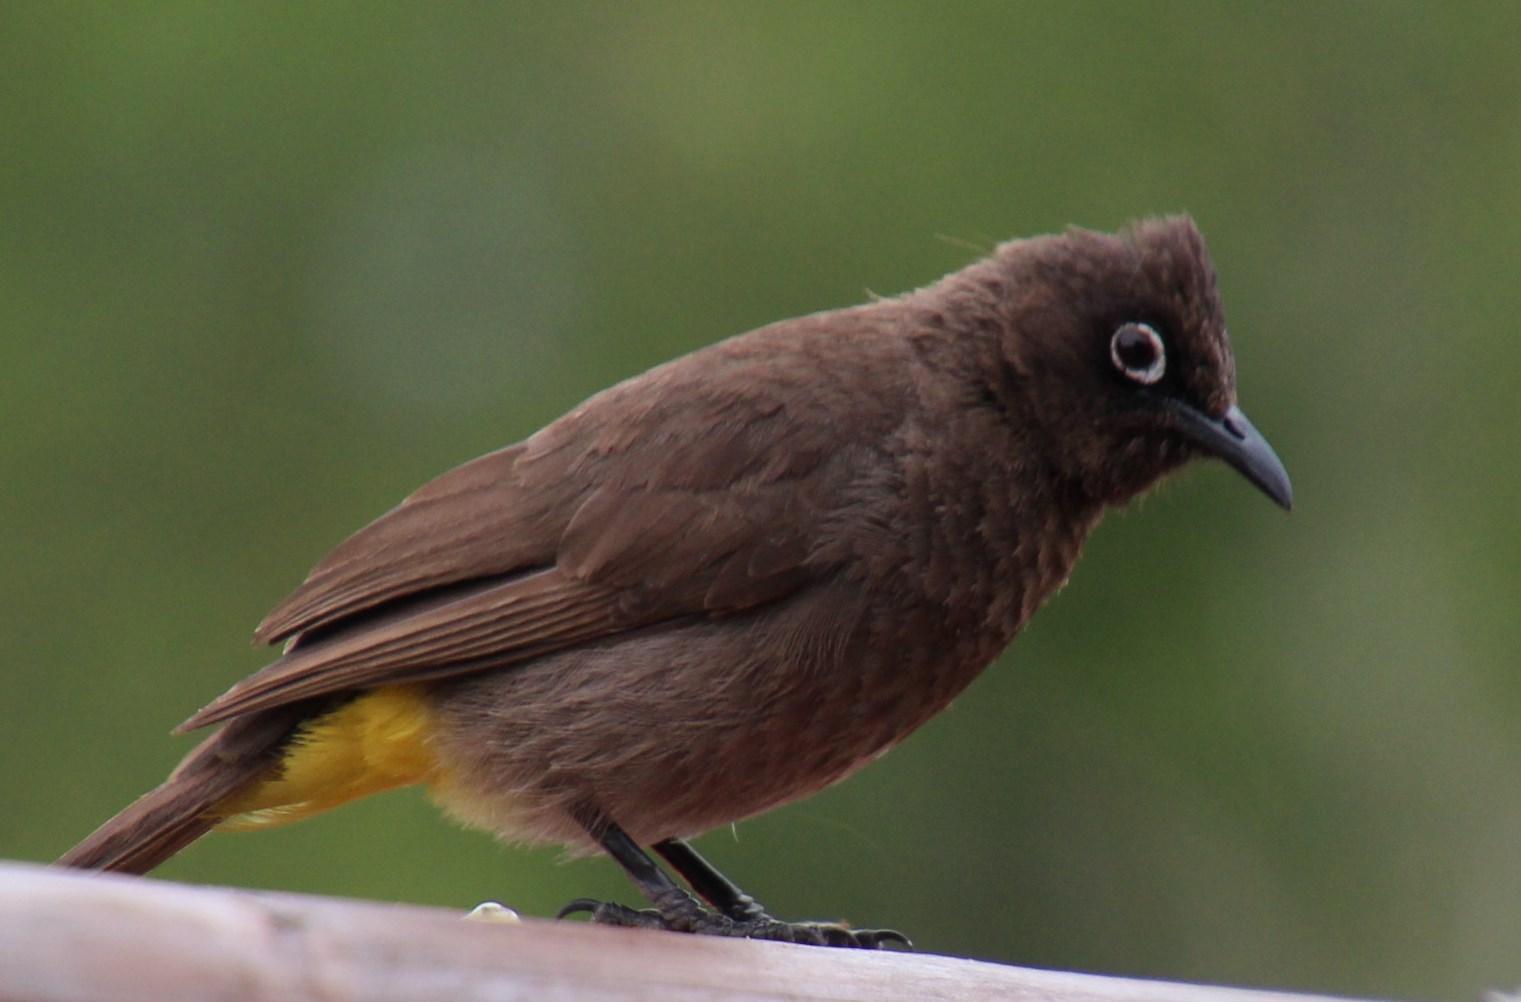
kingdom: Animalia
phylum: Chordata
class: Aves
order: Passeriformes
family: Pycnonotidae
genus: Pycnonotus
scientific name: Pycnonotus capensis
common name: Cape bulbul
